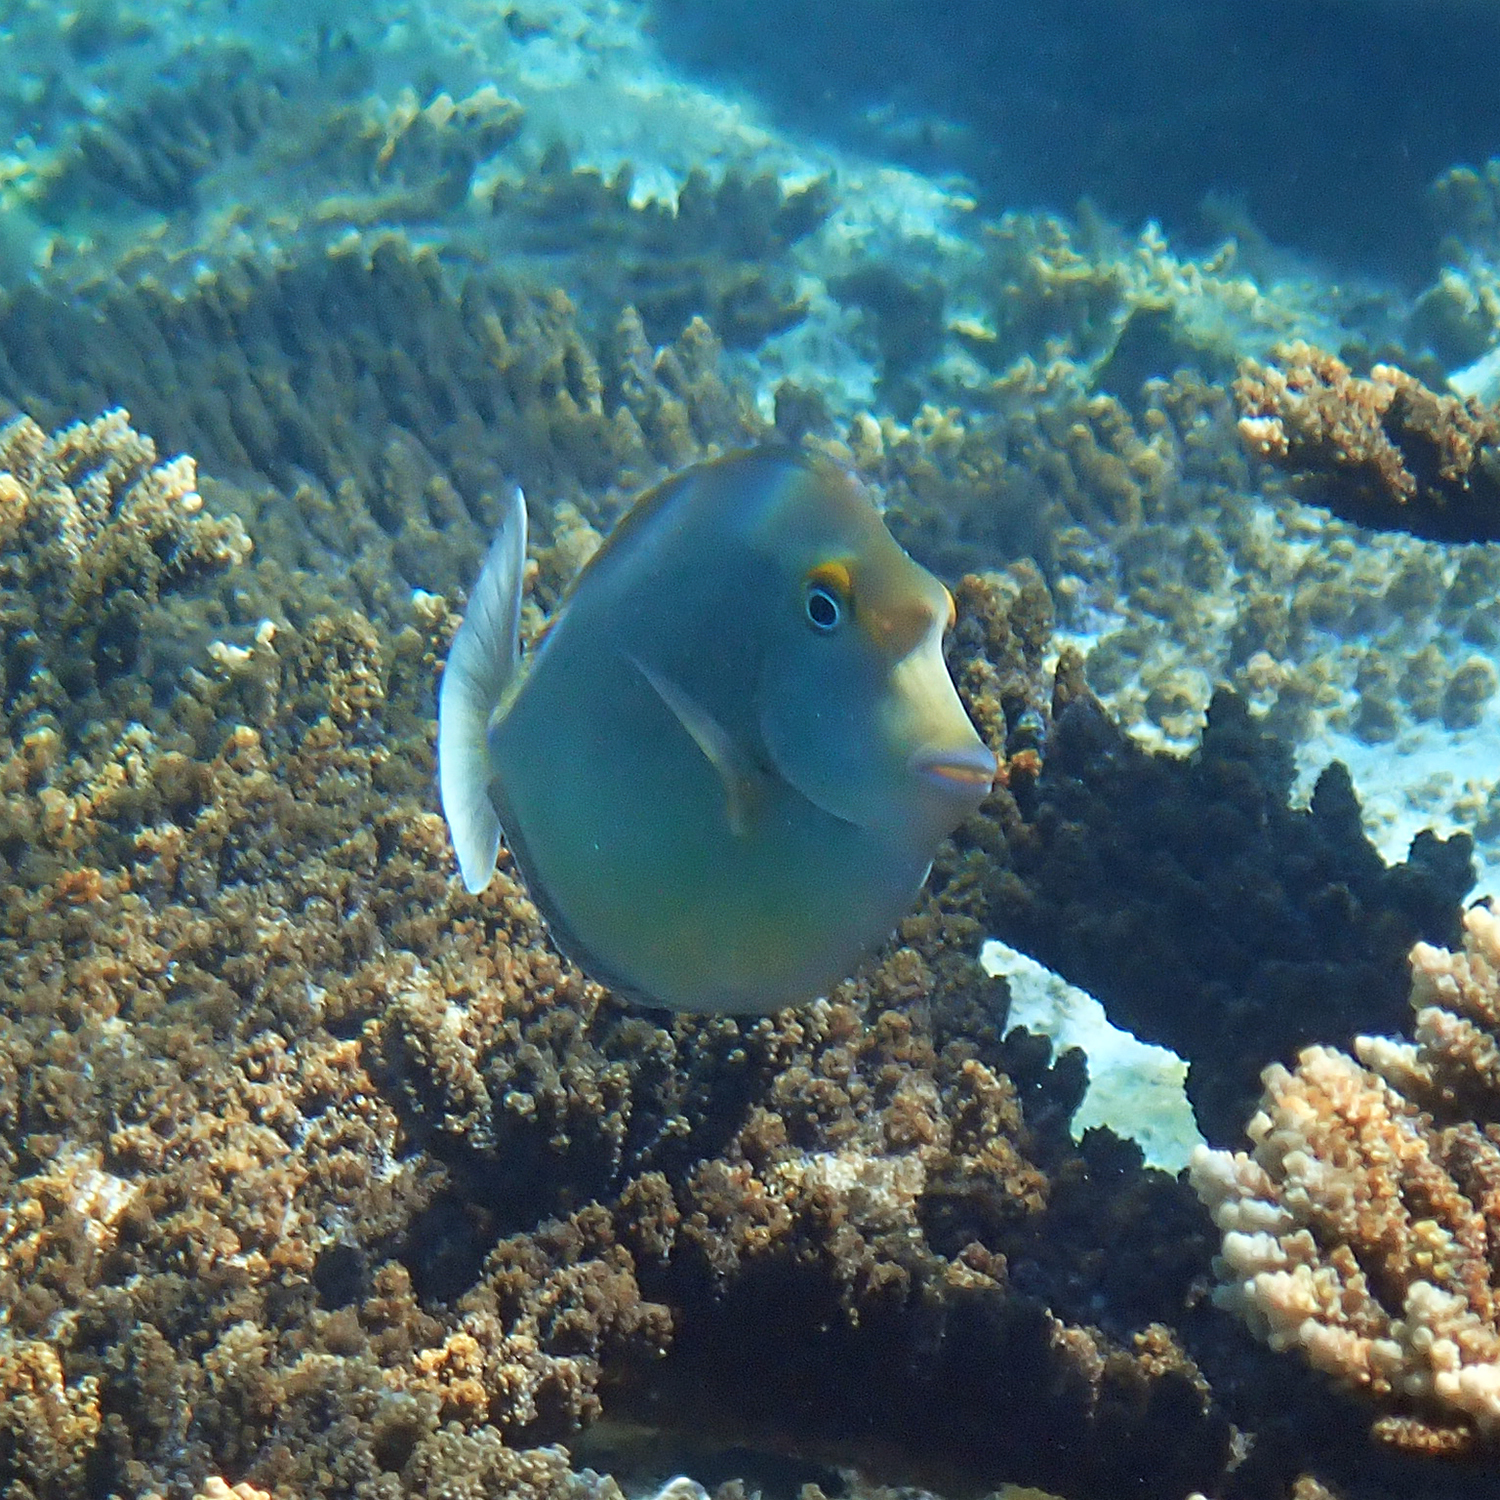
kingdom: Animalia
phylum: Chordata
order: Perciformes
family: Acanthuridae
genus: Naso
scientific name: Naso unicornis
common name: Bluespine unicornfish
